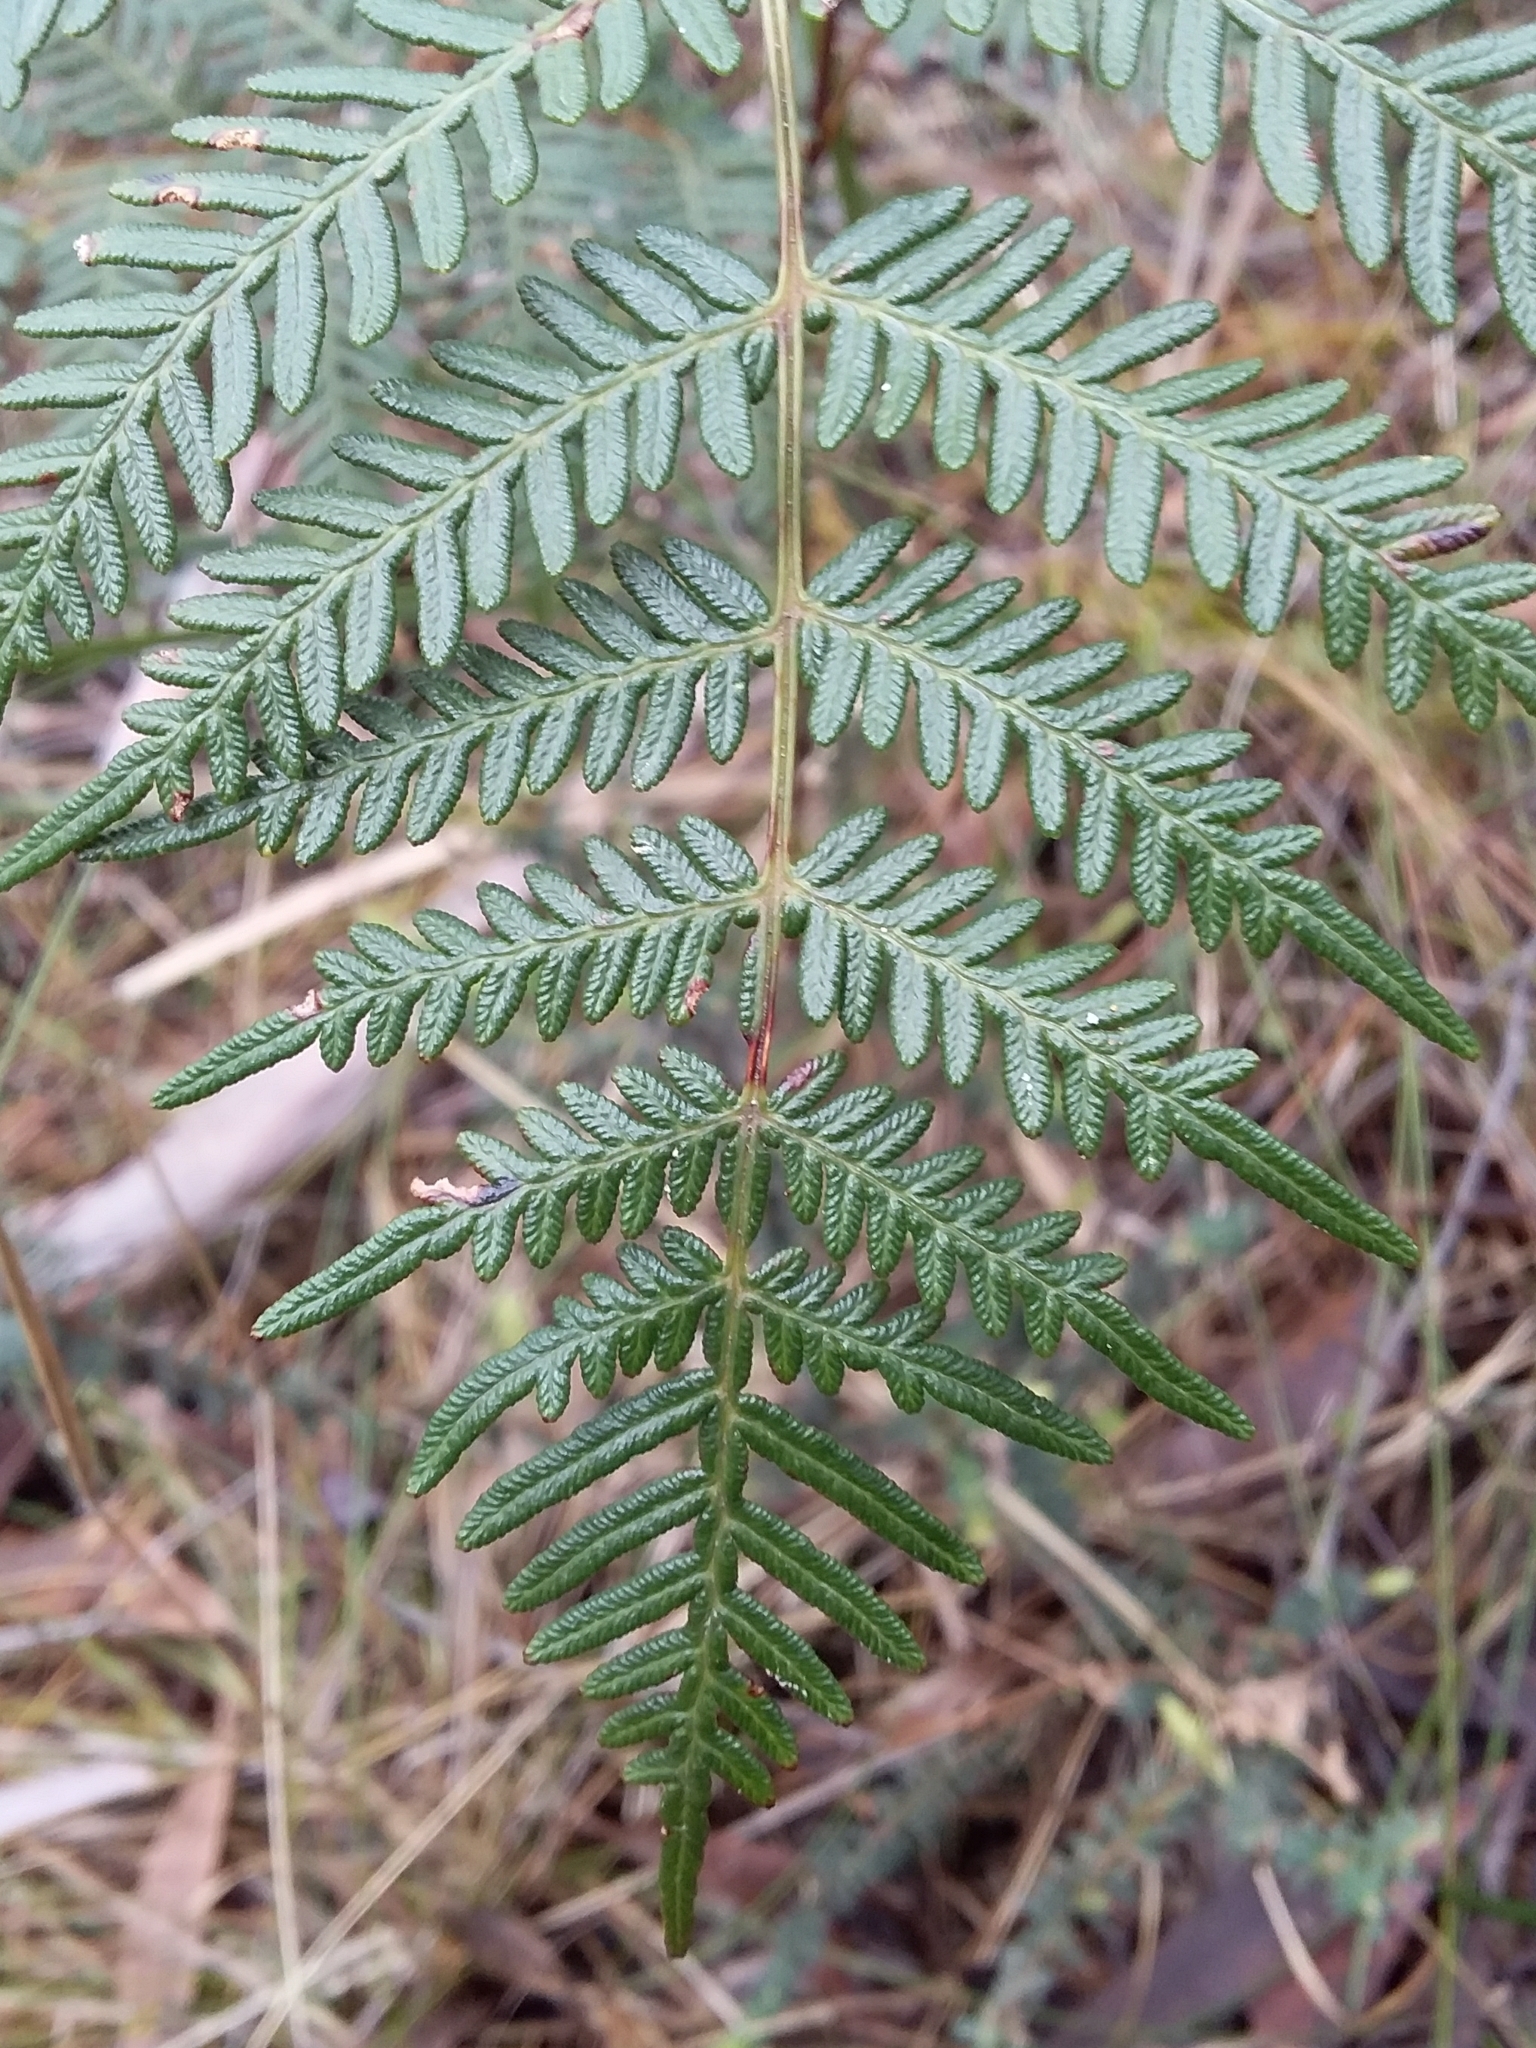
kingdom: Plantae
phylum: Tracheophyta
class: Polypodiopsida
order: Polypodiales
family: Dennstaedtiaceae
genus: Pteridium
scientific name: Pteridium esculentum
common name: Bracken fern
